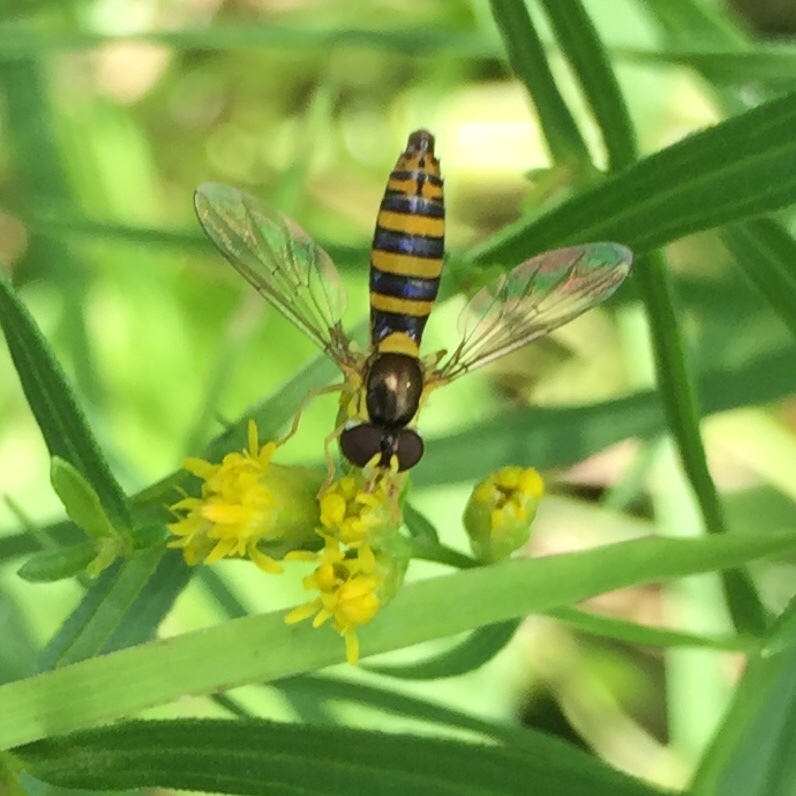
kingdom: Animalia
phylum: Arthropoda
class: Insecta
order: Diptera
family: Syrphidae
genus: Sphaerophoria
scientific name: Sphaerophoria
